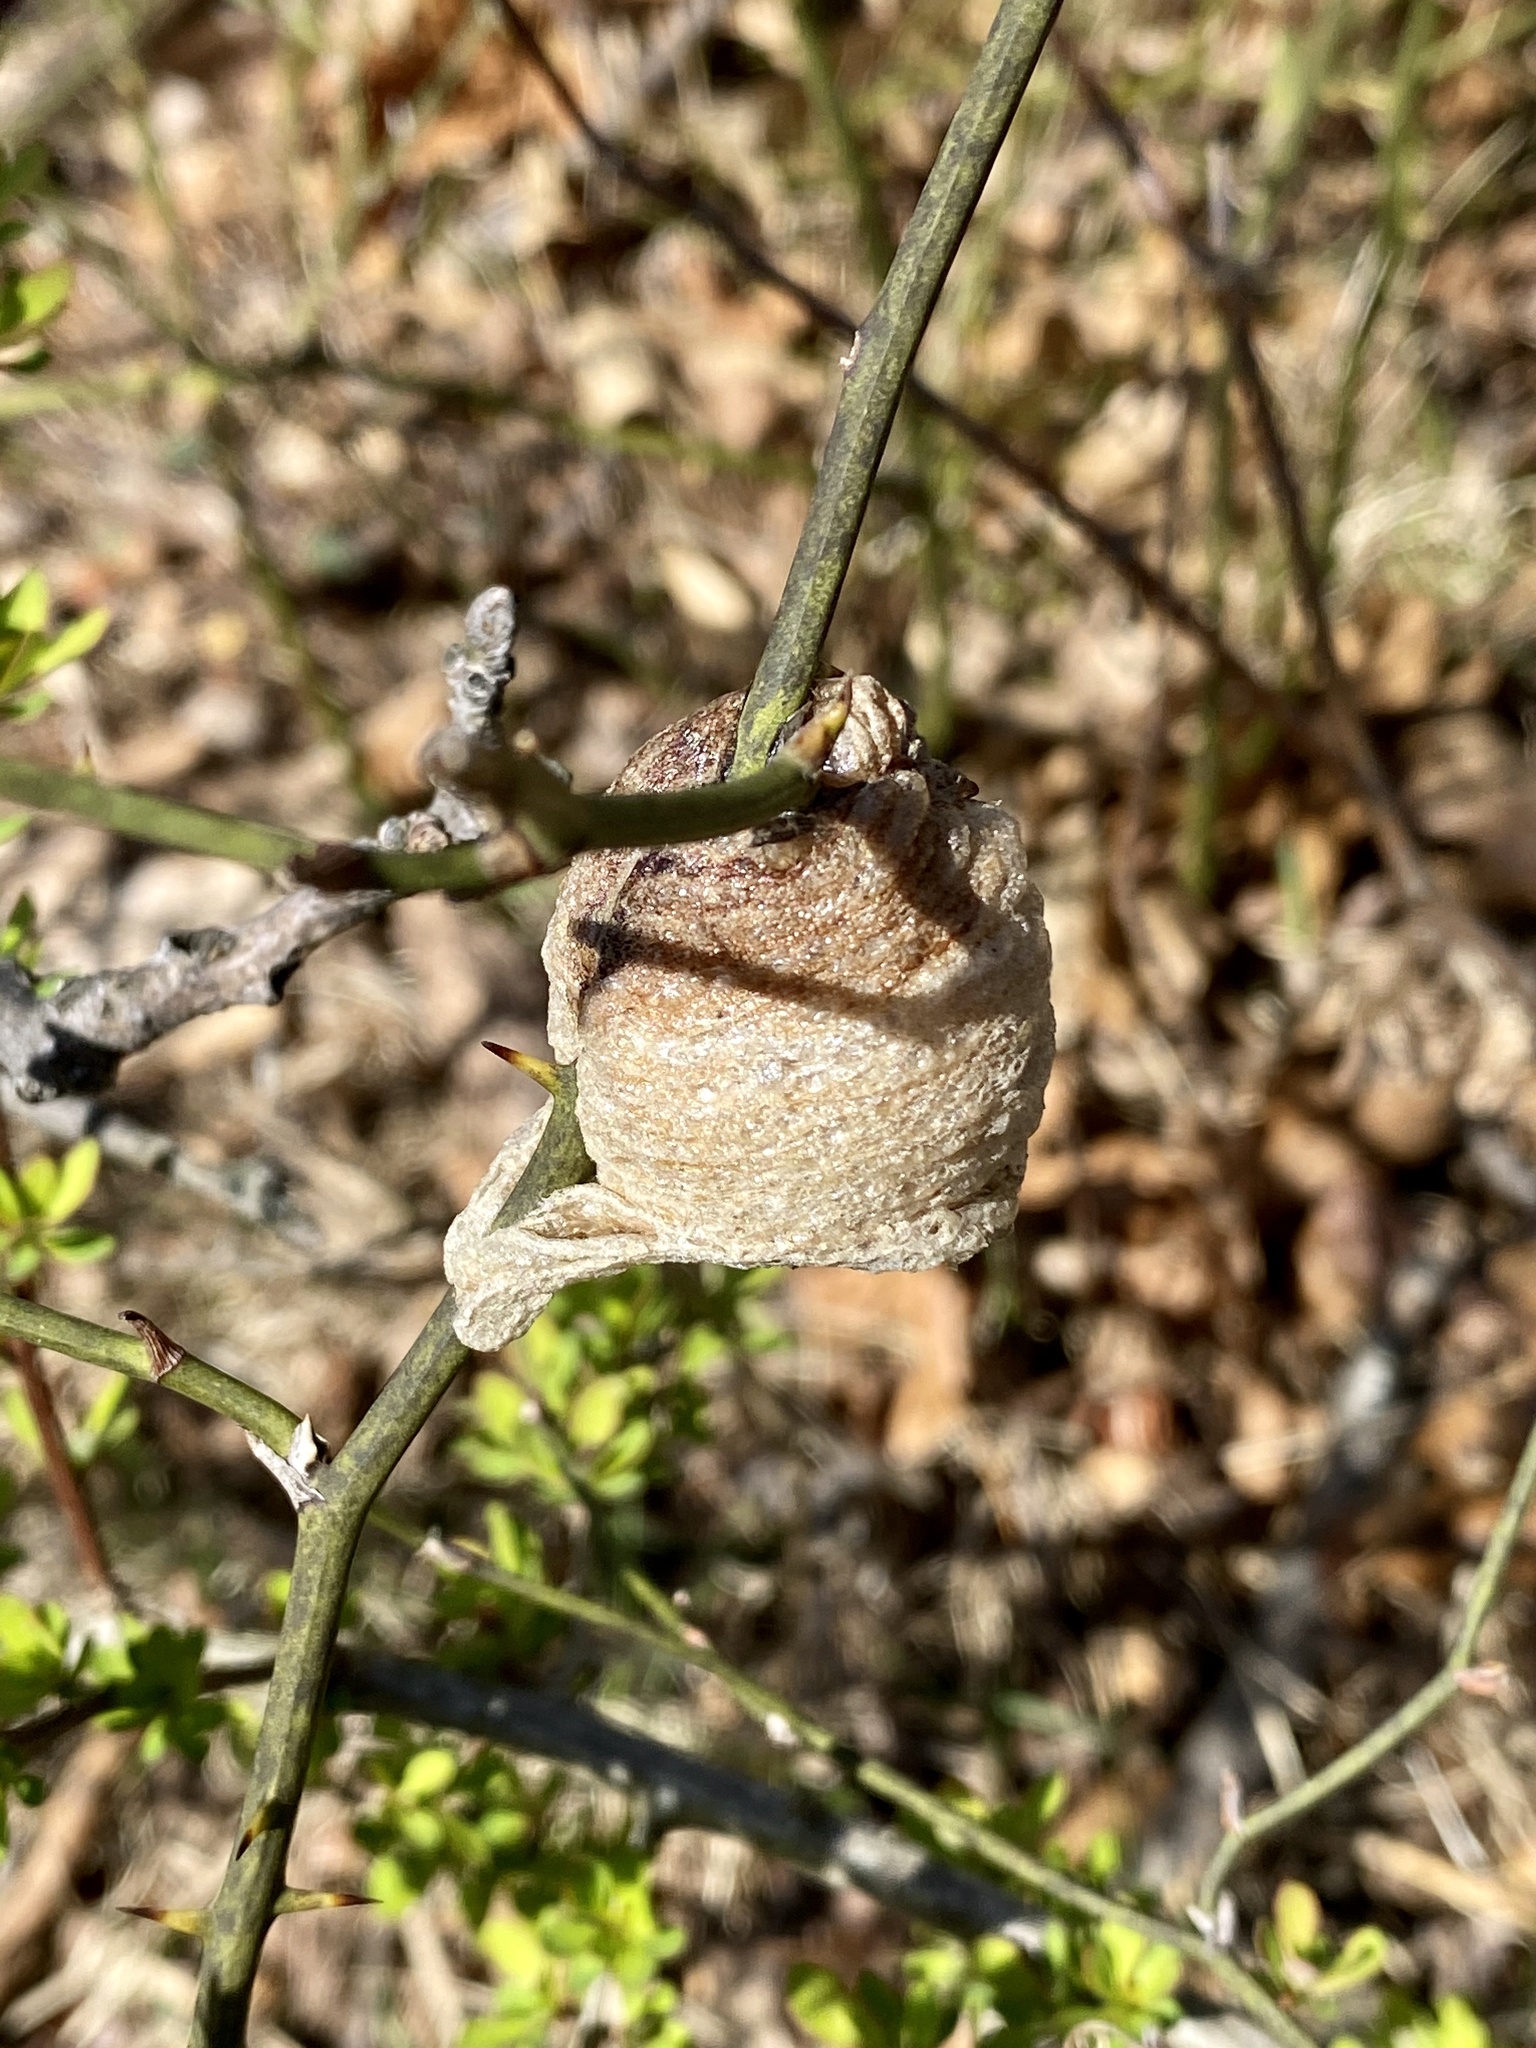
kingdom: Animalia
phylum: Arthropoda
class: Insecta
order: Mantodea
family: Mantidae
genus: Tenodera
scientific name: Tenodera sinensis
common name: Chinese mantis
